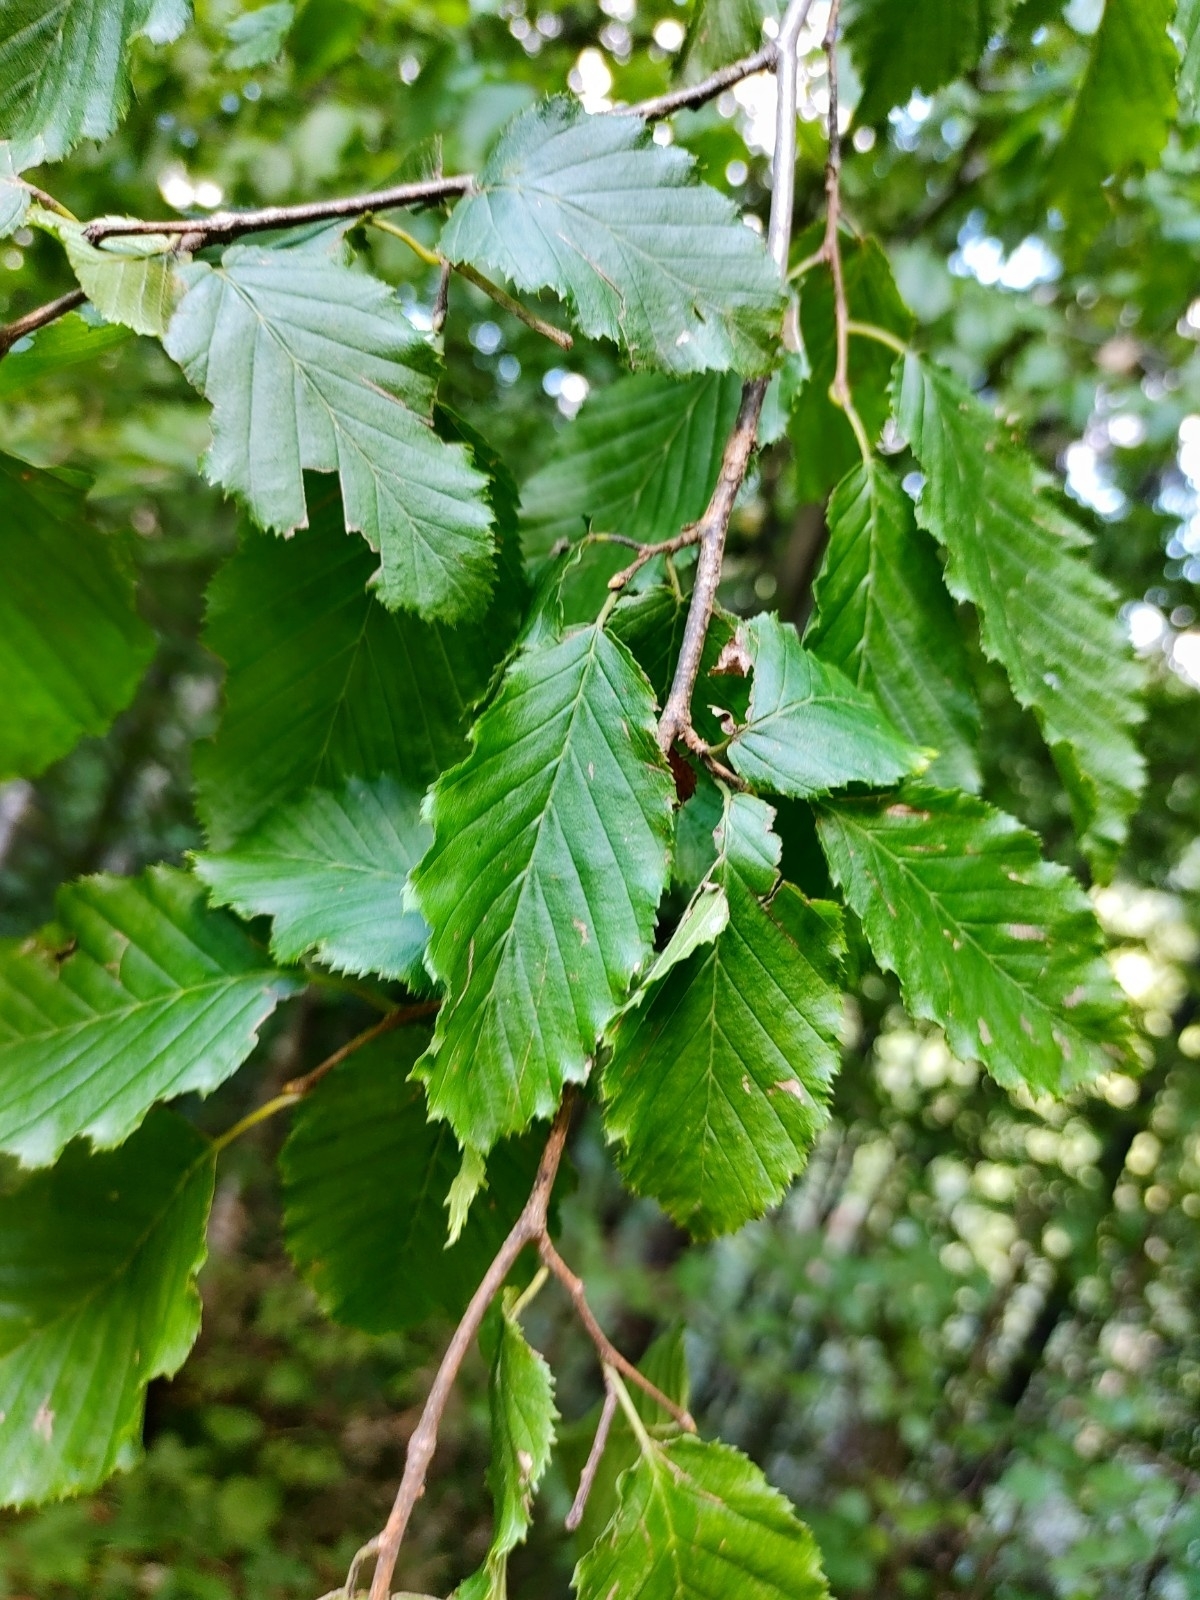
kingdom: Plantae
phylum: Tracheophyta
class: Magnoliopsida
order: Fagales
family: Betulaceae
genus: Carpinus
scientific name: Carpinus betulus
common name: Hornbeam
